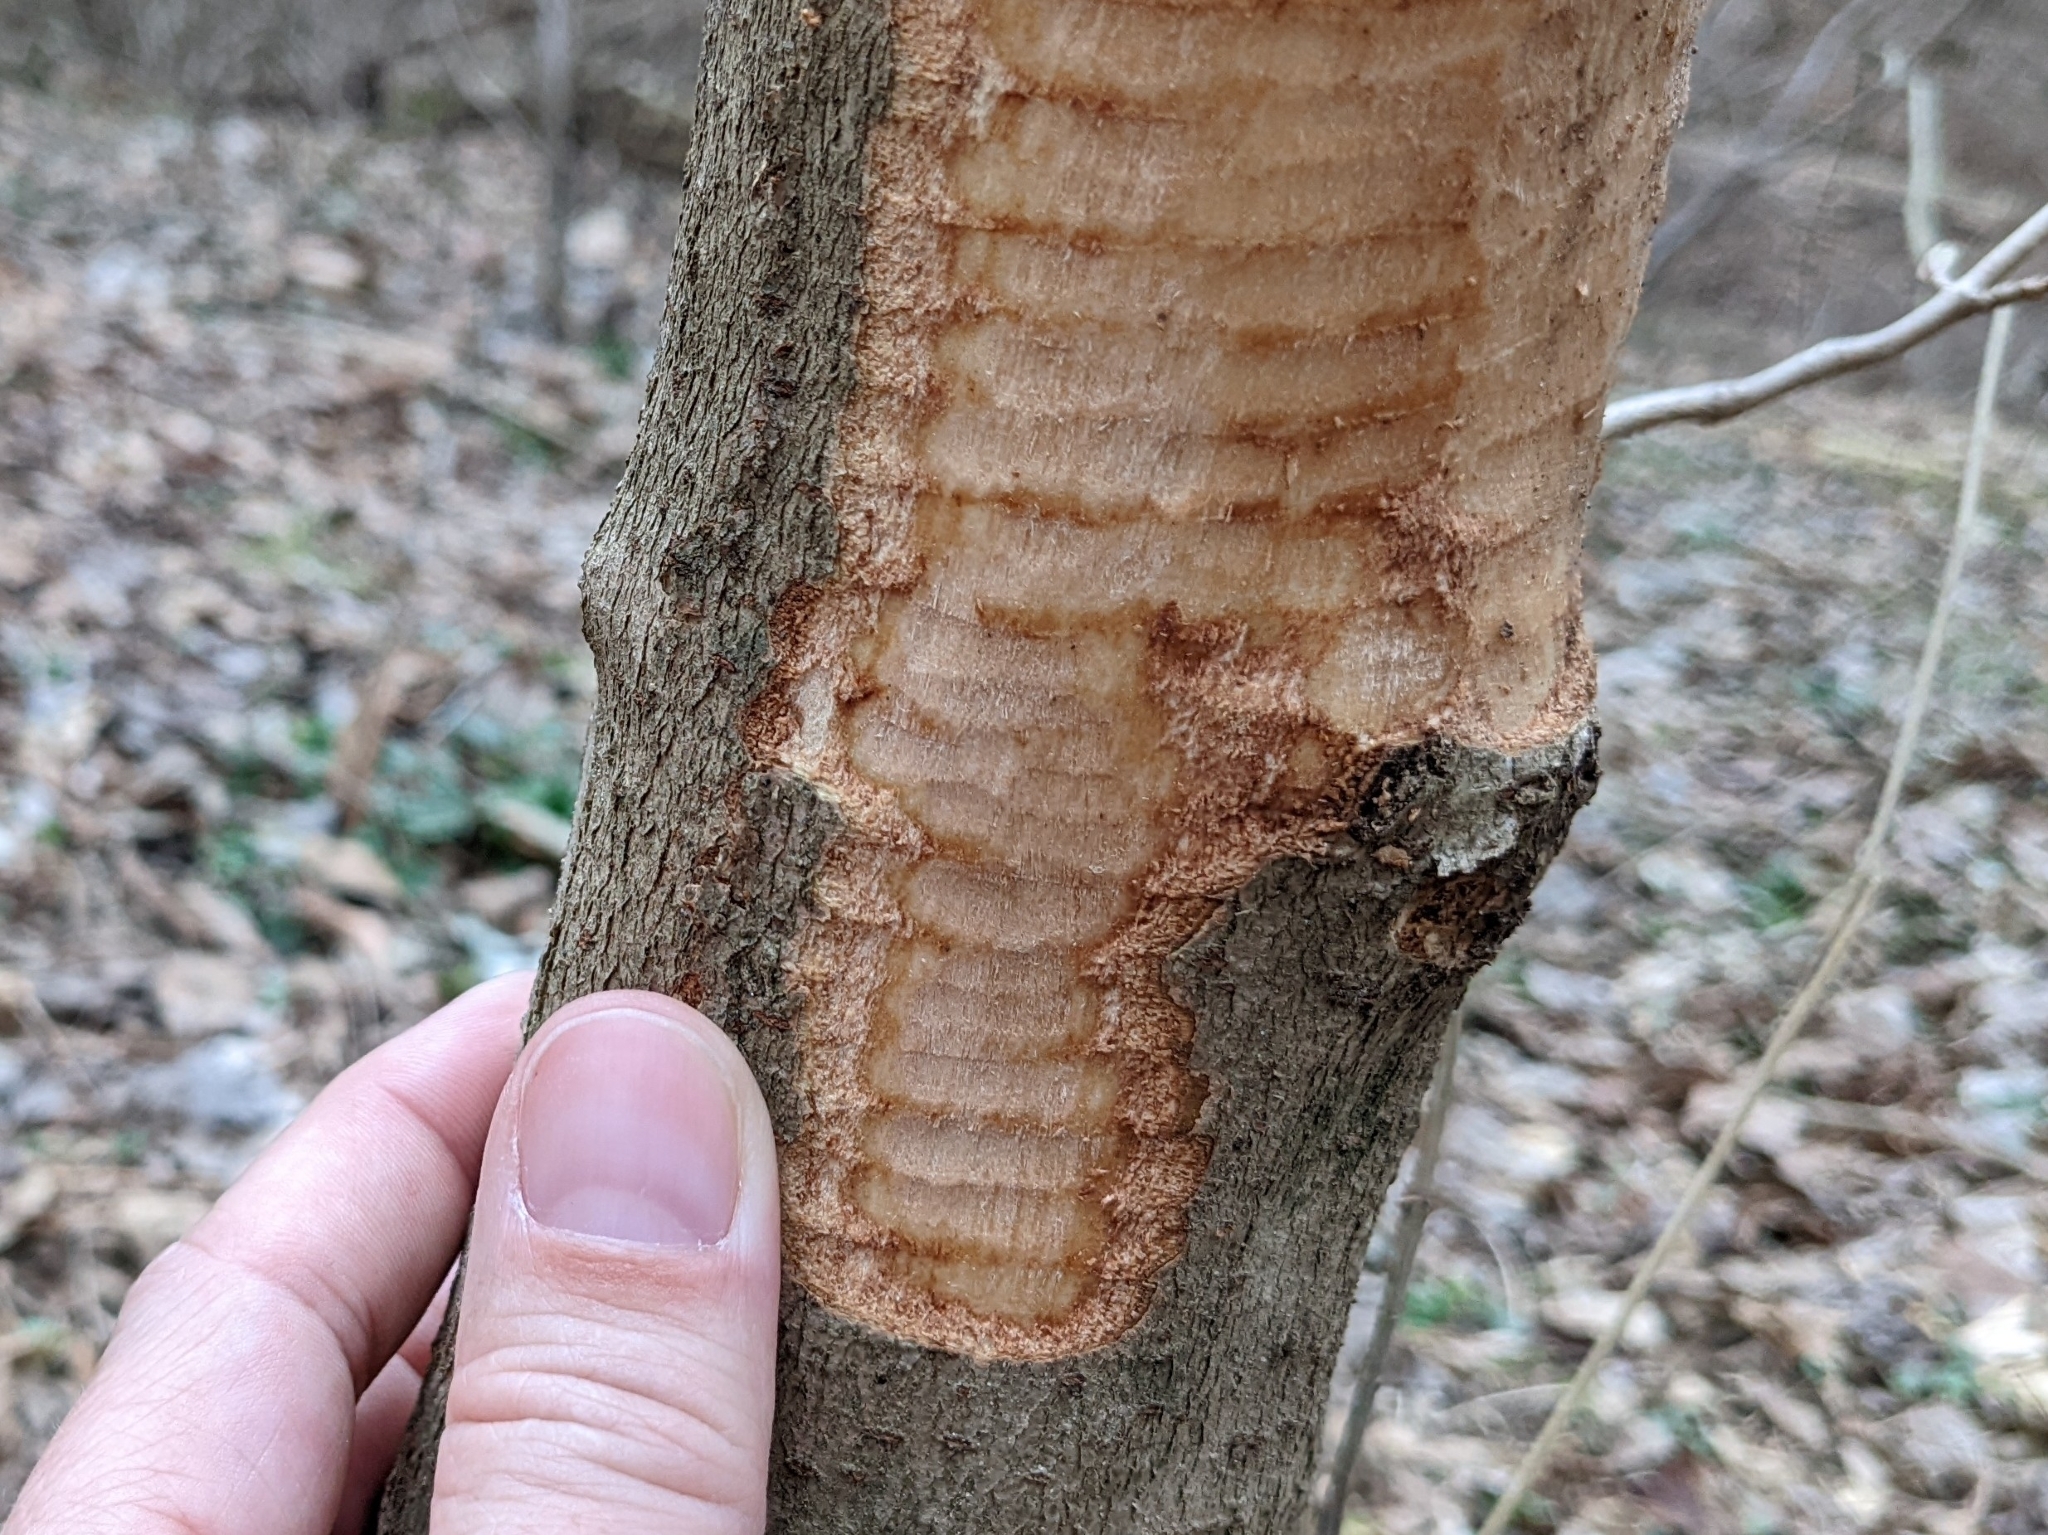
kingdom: Animalia
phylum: Chordata
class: Mammalia
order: Rodentia
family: Castoridae
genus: Castor
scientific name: Castor canadensis
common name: American beaver
